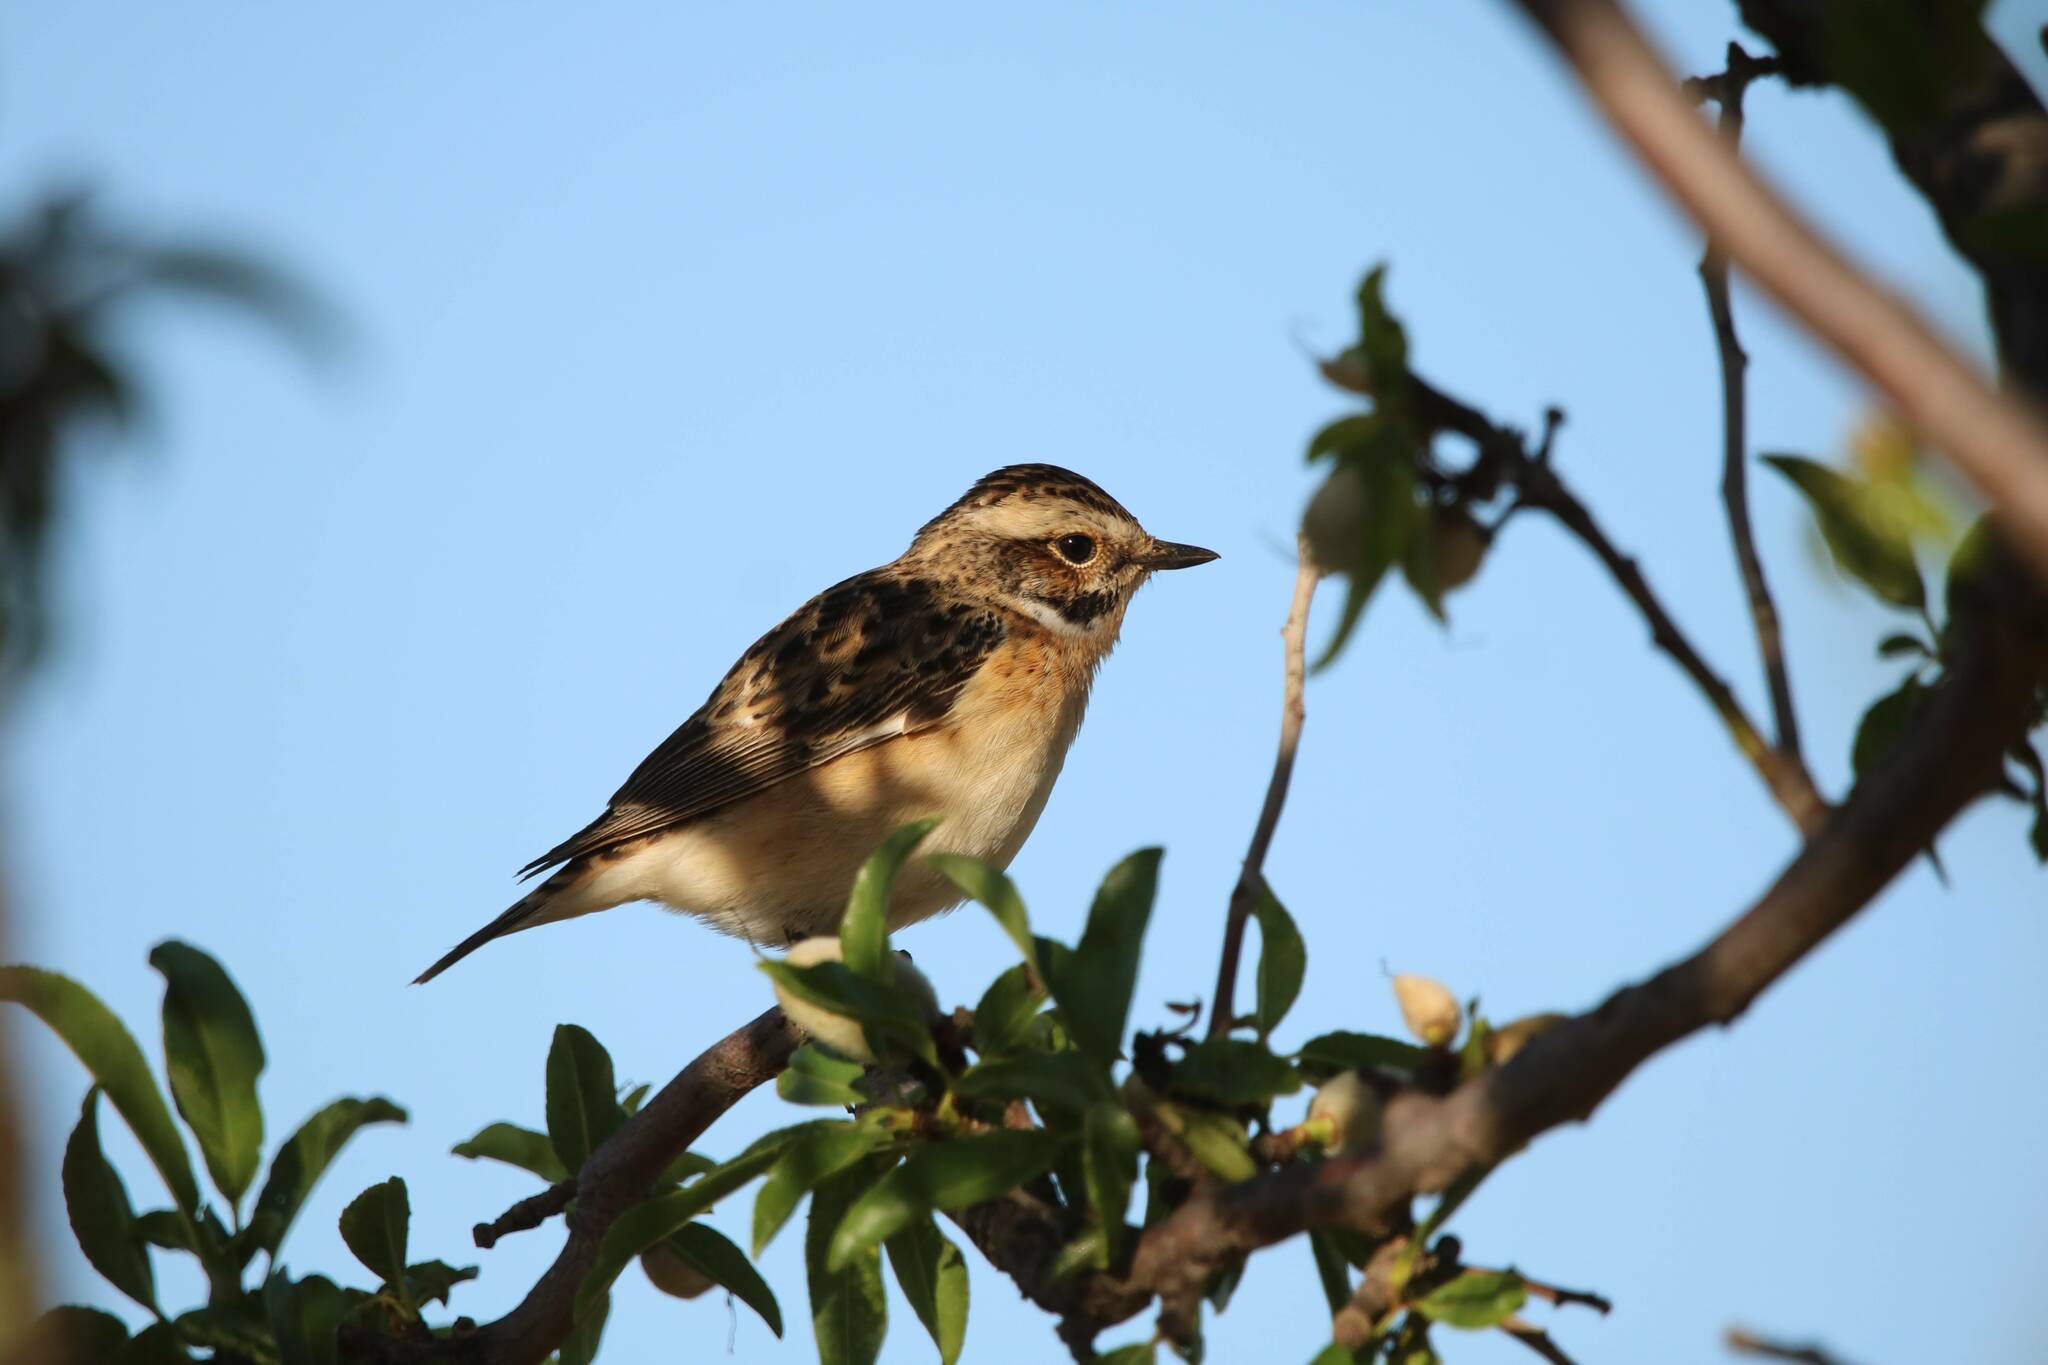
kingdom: Animalia
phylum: Chordata
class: Aves
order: Passeriformes
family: Muscicapidae
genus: Saxicola
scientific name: Saxicola rubetra
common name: Whinchat
